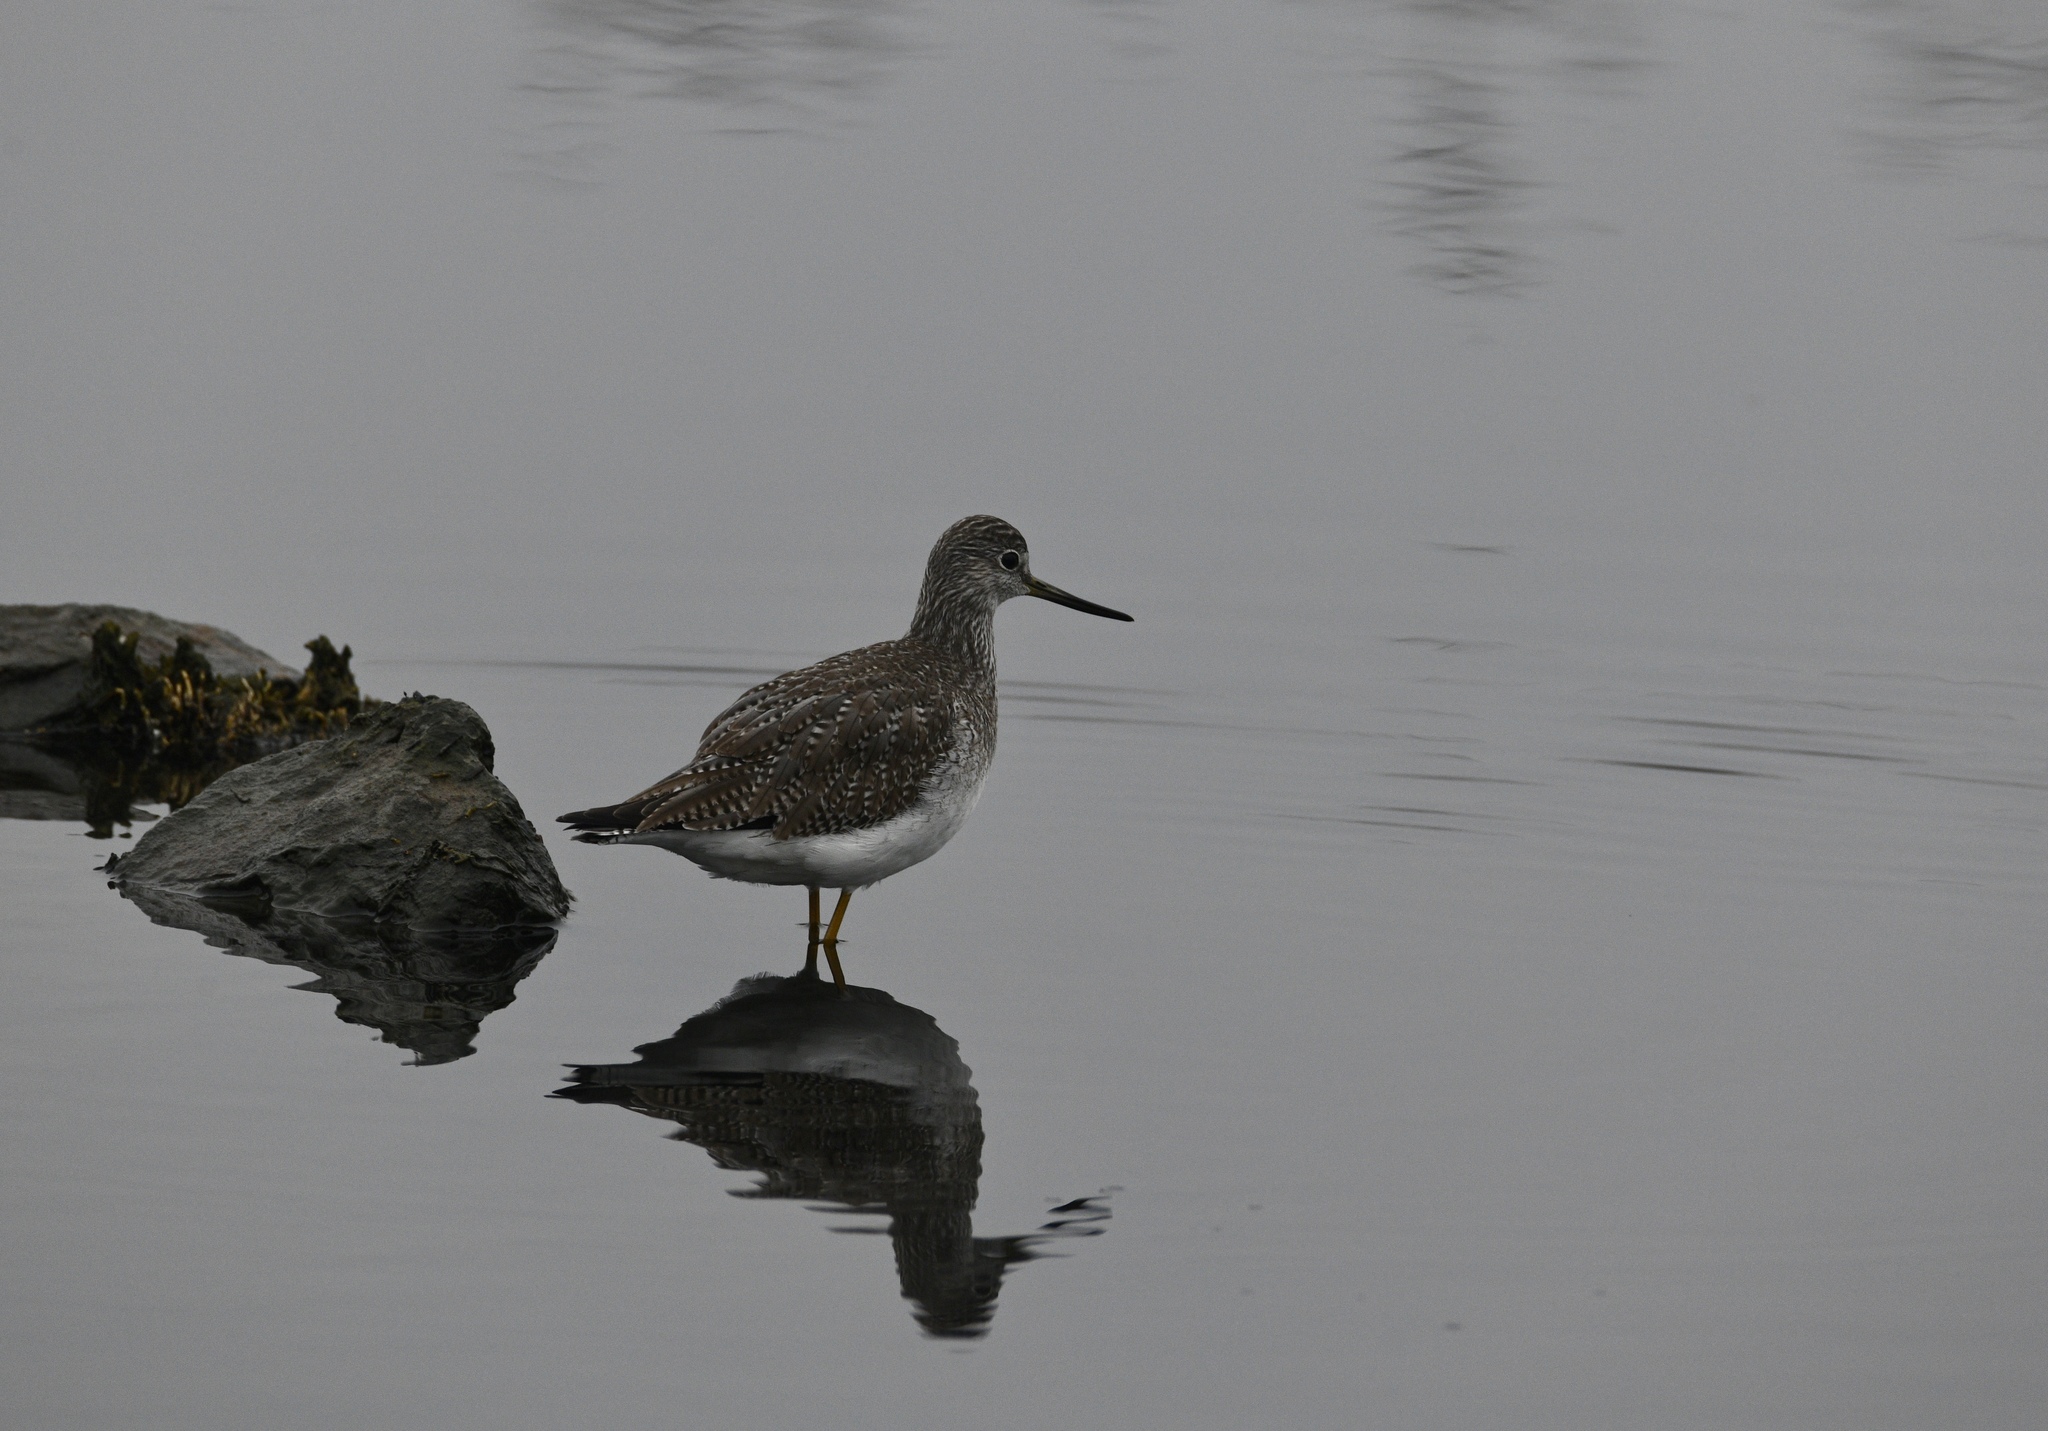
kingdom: Animalia
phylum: Chordata
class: Aves
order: Charadriiformes
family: Scolopacidae
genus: Tringa
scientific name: Tringa melanoleuca
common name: Greater yellowlegs
